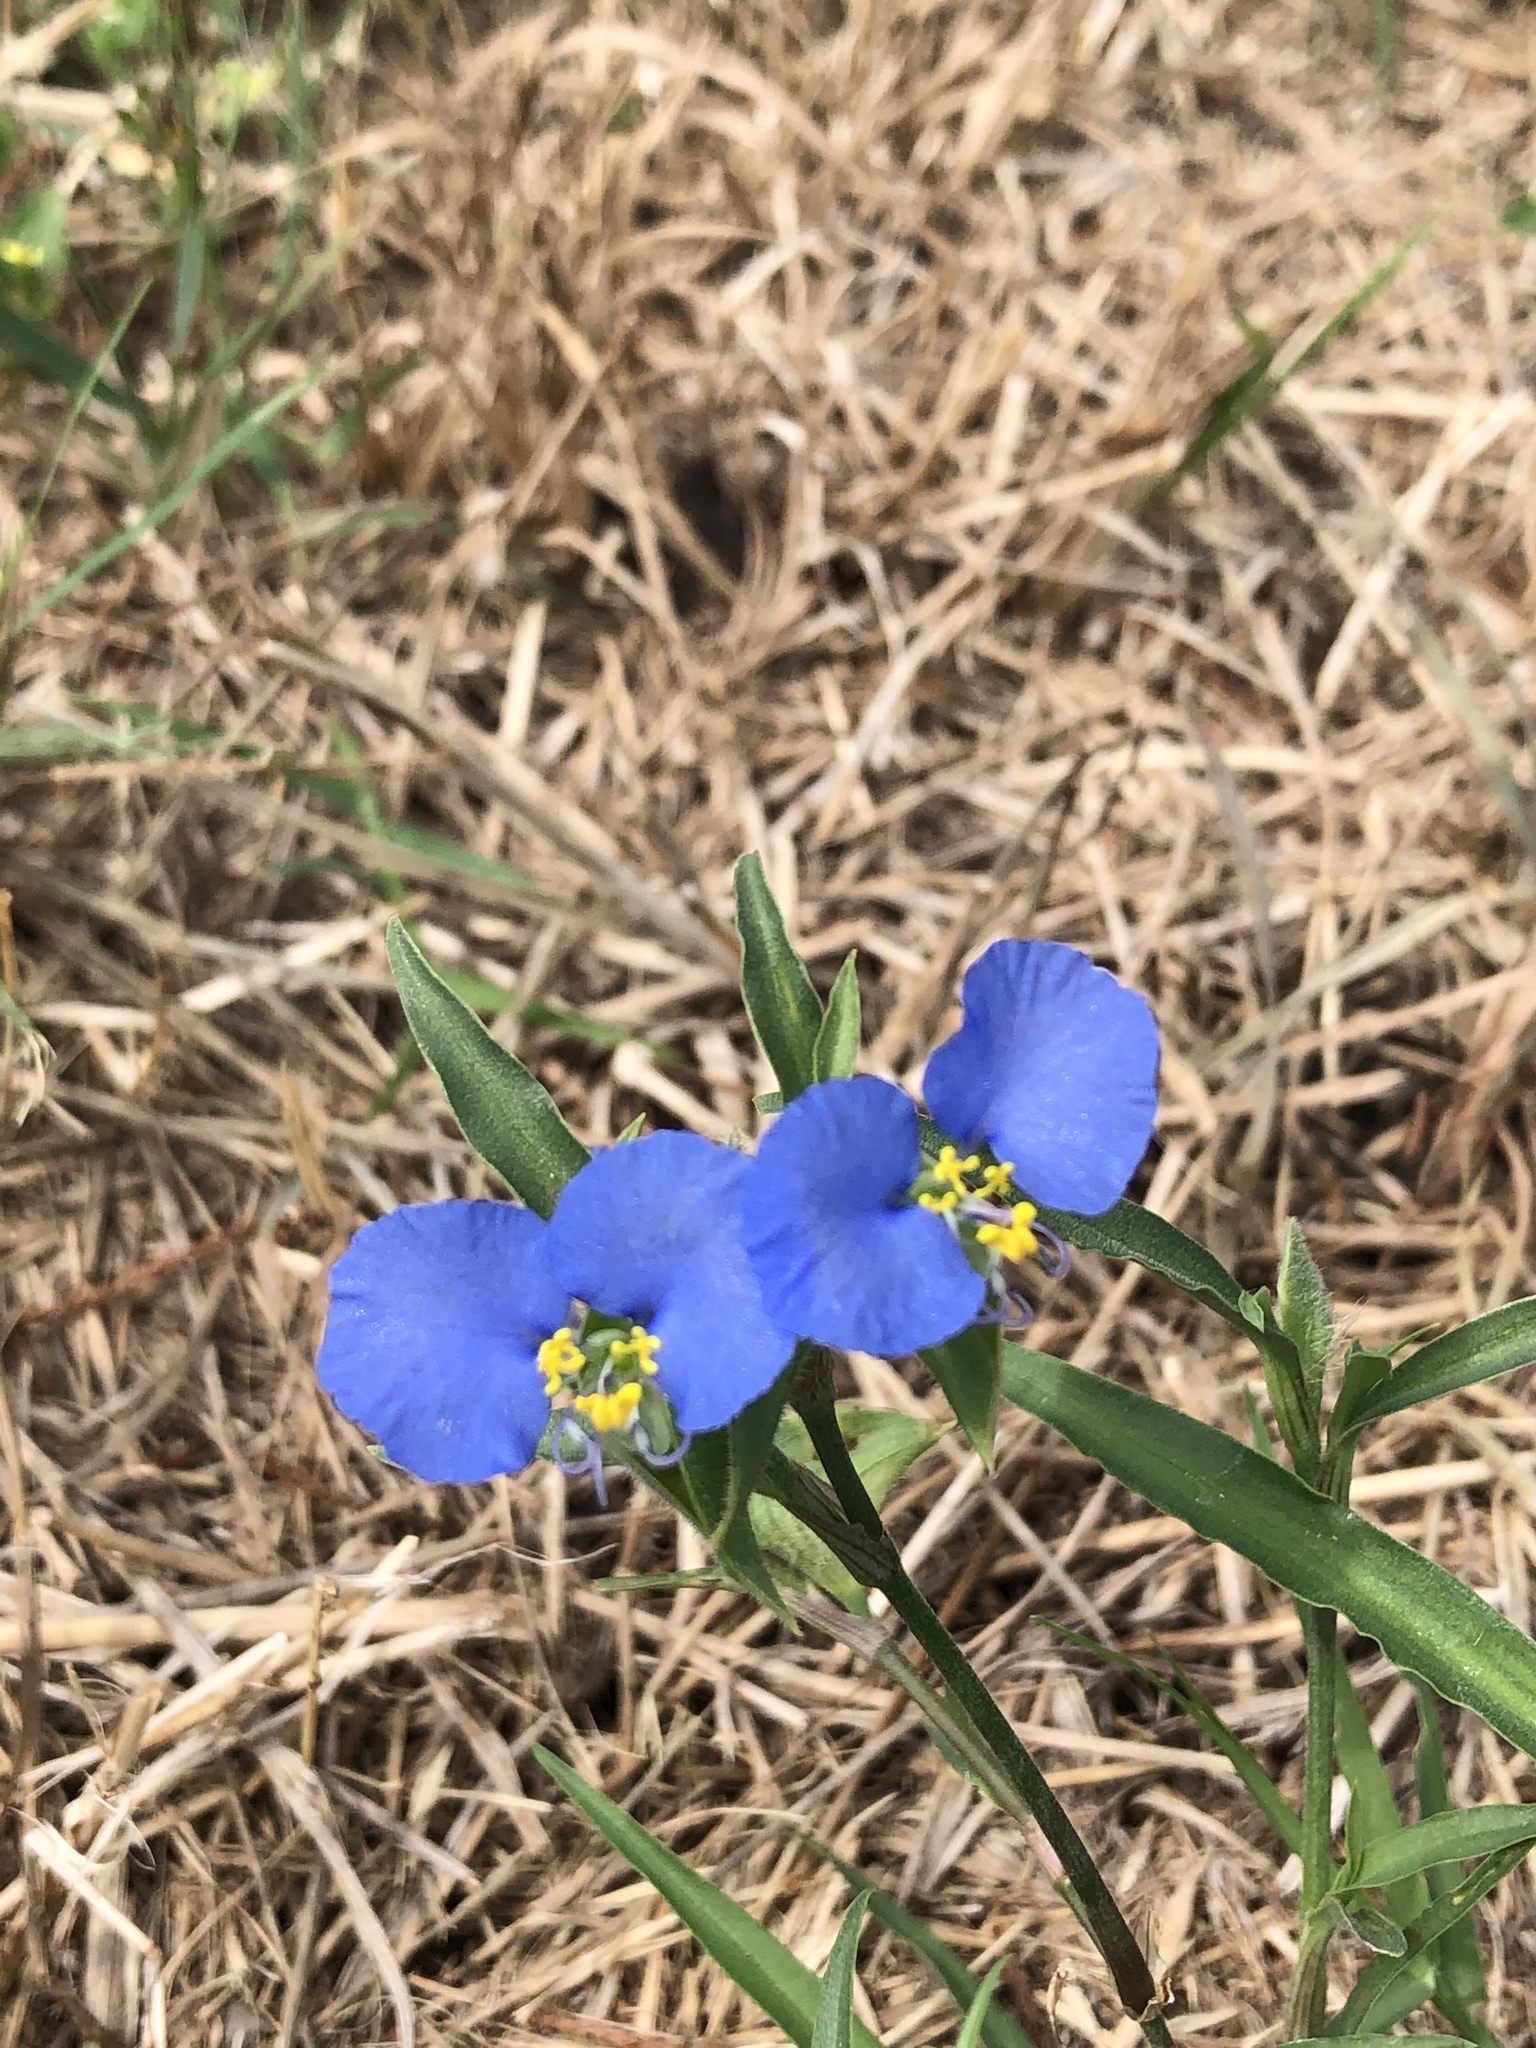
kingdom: Plantae
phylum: Tracheophyta
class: Liliopsida
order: Commelinales
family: Commelinaceae
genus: Commelina
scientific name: Commelina erecta
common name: Blousel blommetjie
